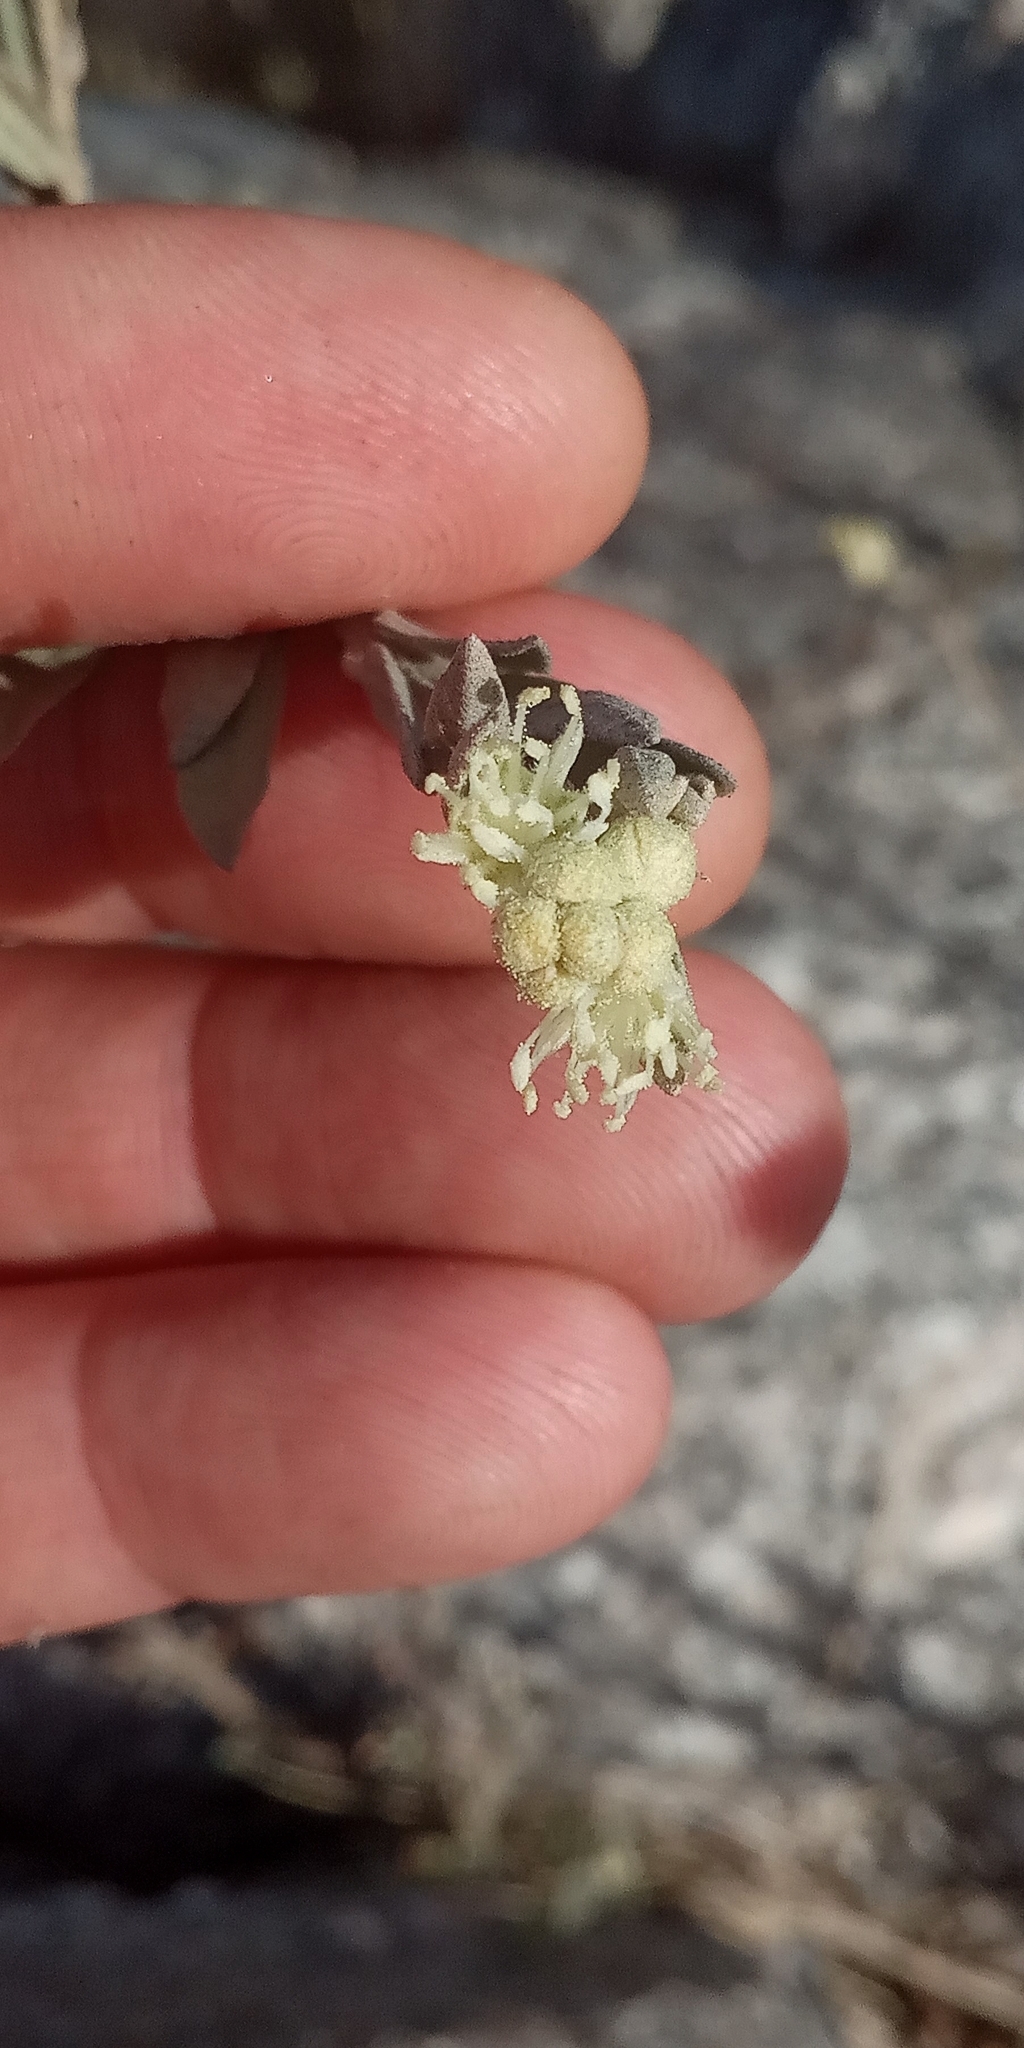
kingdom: Plantae
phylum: Tracheophyta
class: Magnoliopsida
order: Malpighiales
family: Euphorbiaceae
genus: Croton
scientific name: Croton parvifolius
